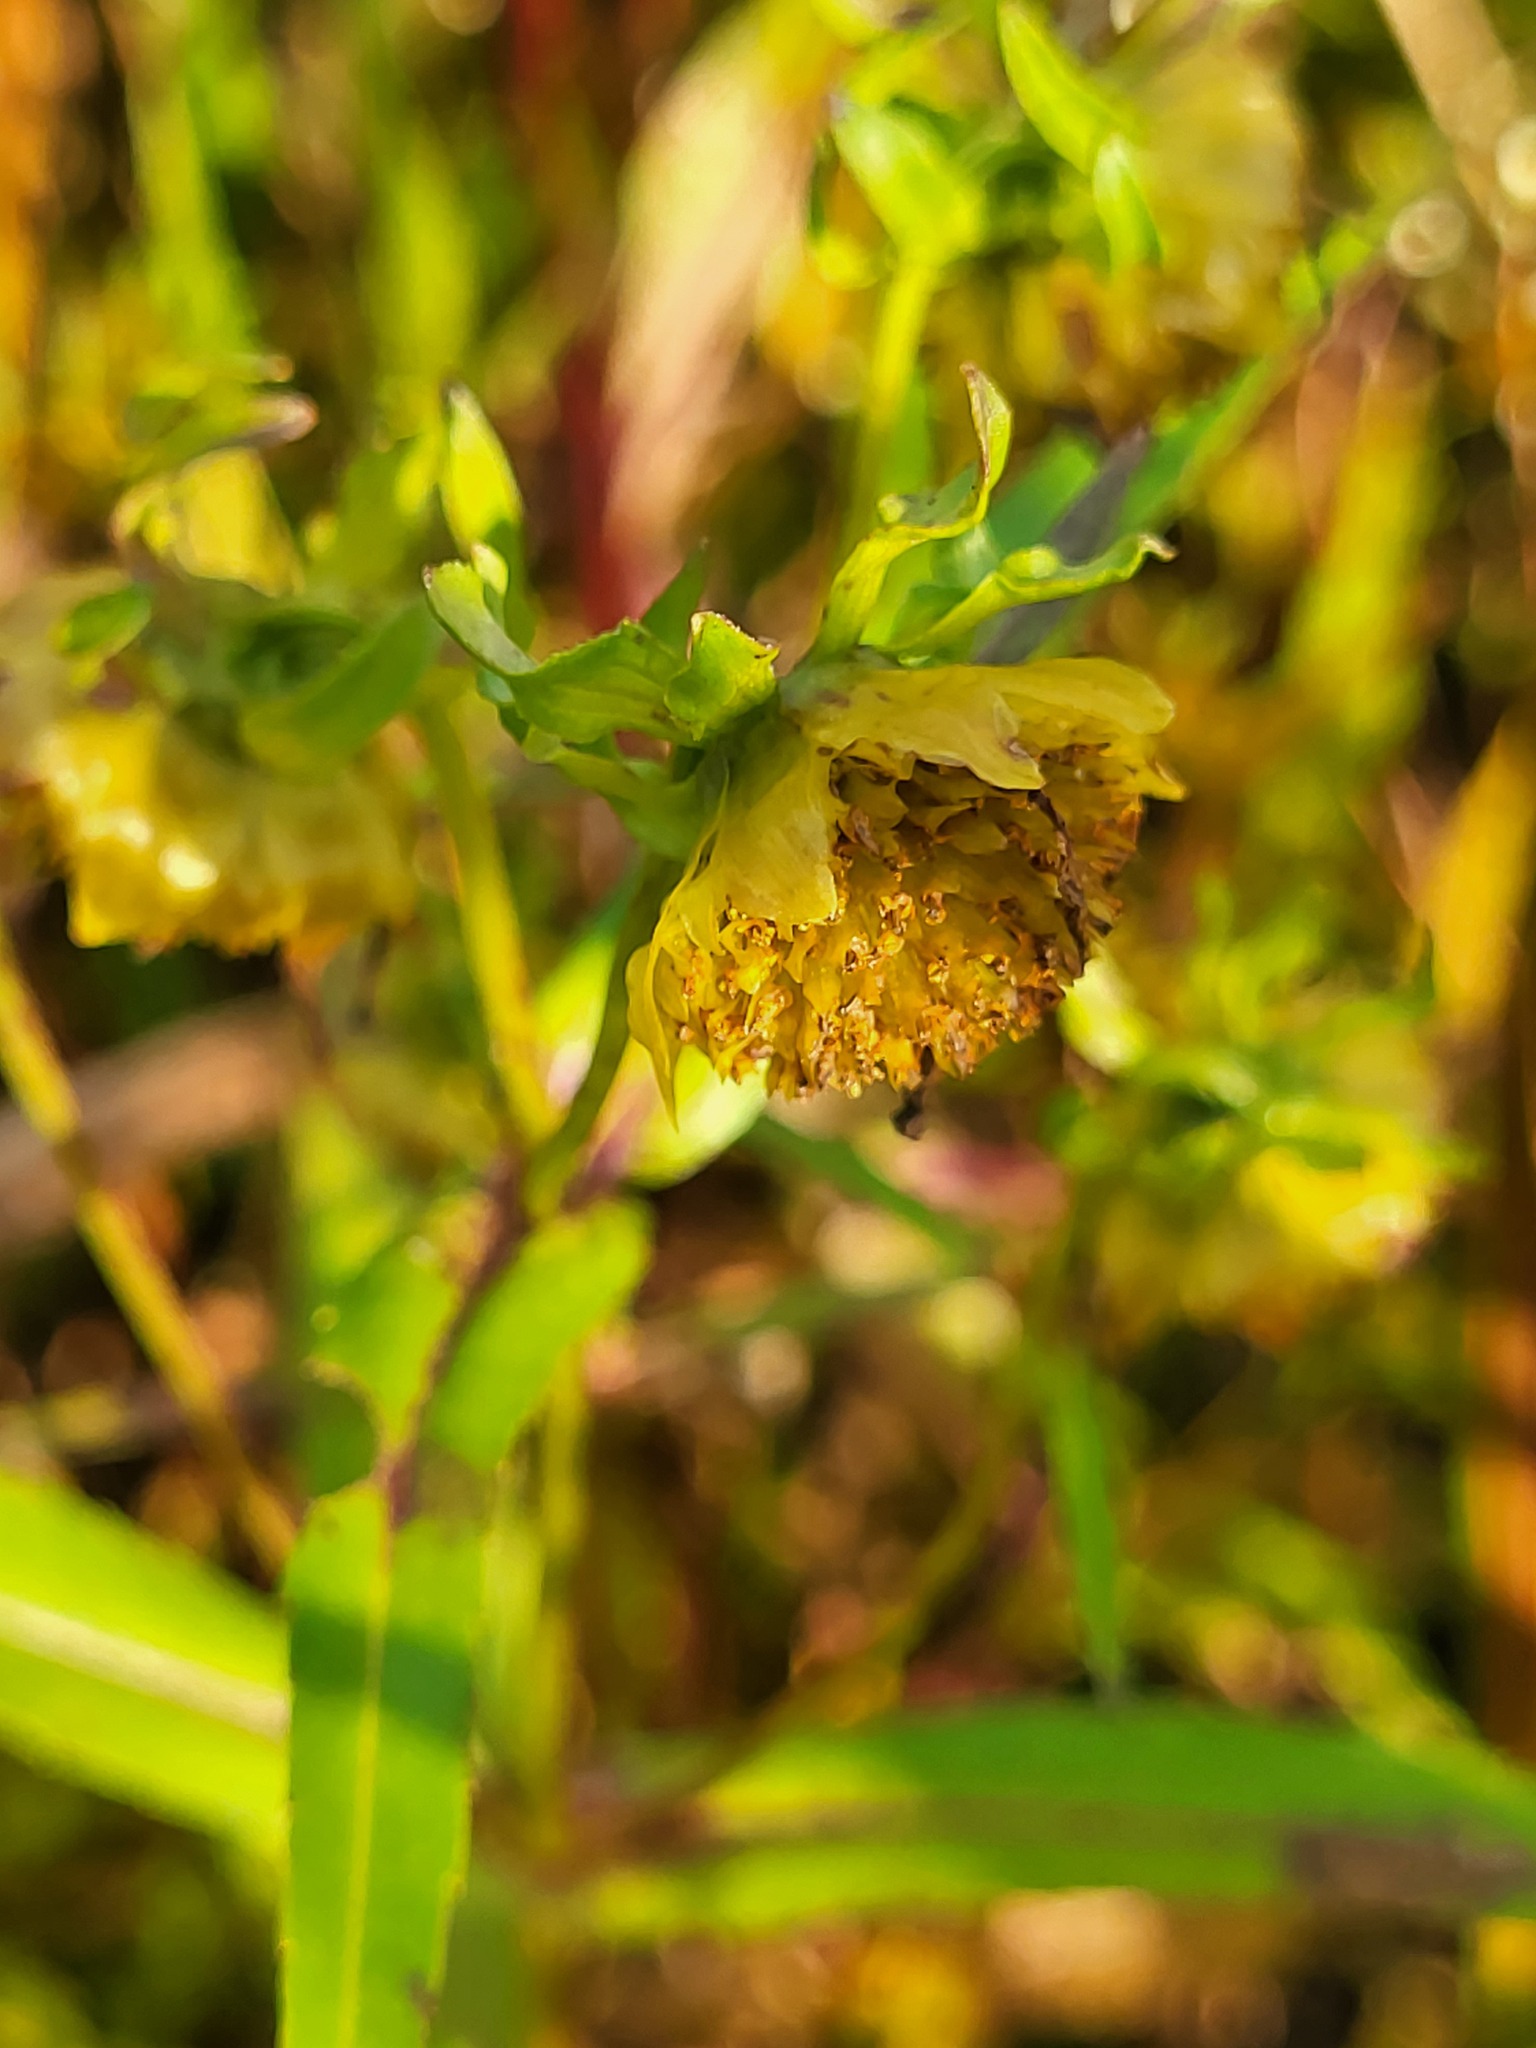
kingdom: Plantae
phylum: Tracheophyta
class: Magnoliopsida
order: Asterales
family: Asteraceae
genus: Bidens
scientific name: Bidens cernua
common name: Nodding bur-marigold
